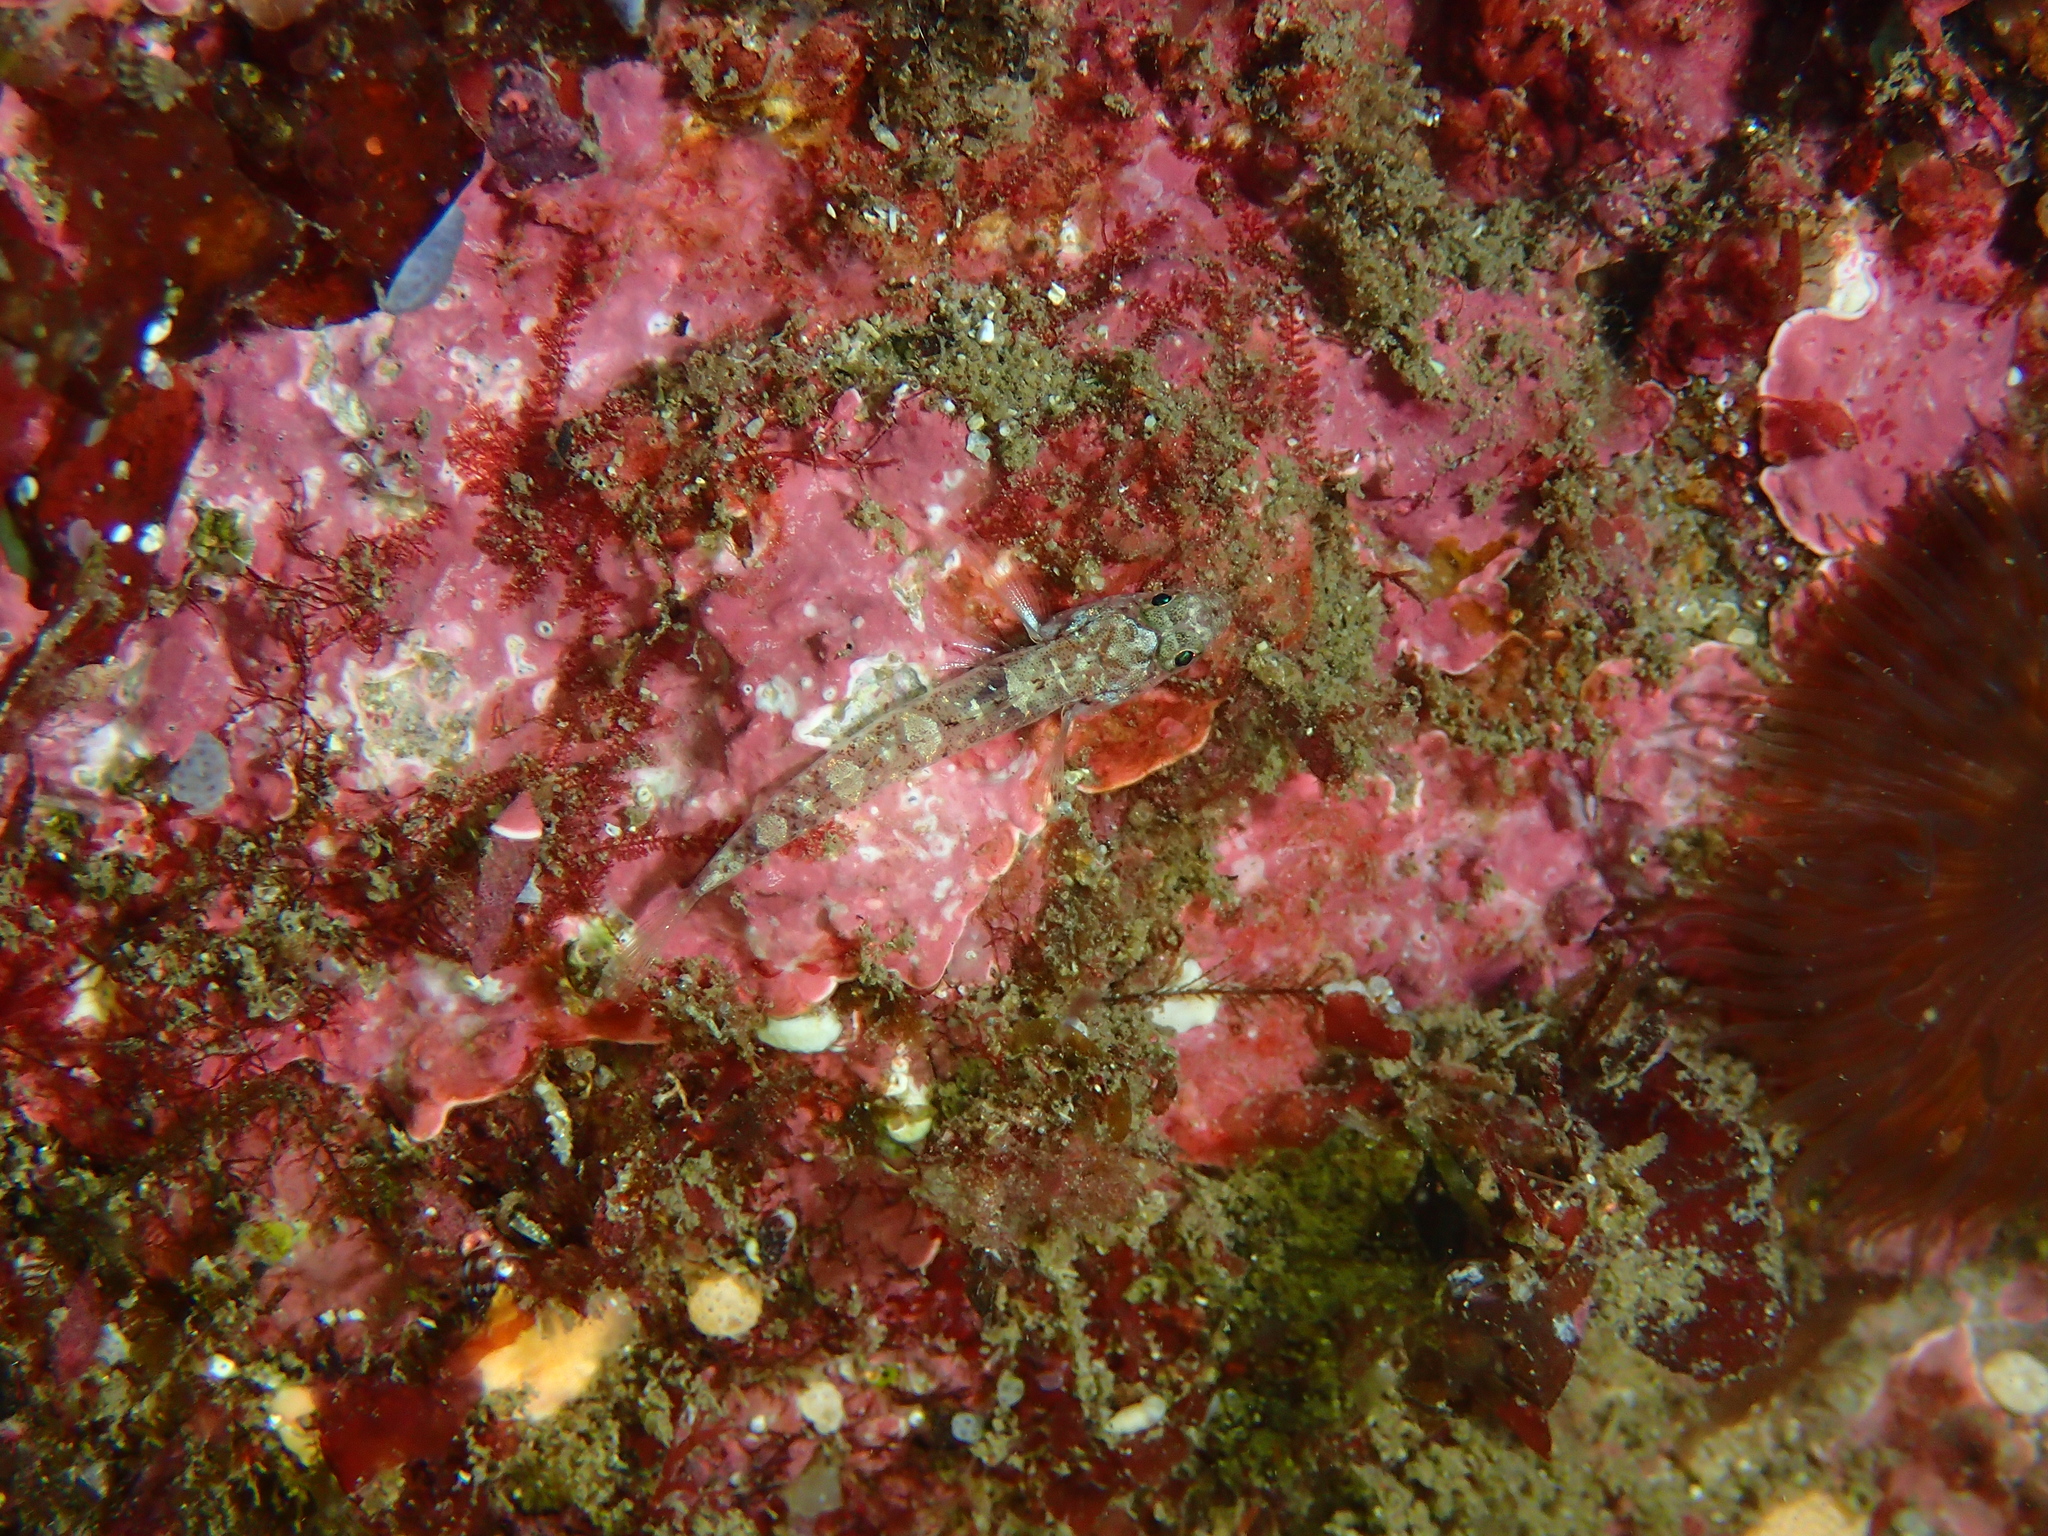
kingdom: Animalia
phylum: Chordata
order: Perciformes
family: Gobiidae
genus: Pomatoschistus
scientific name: Pomatoschistus pictus
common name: Painted goby
